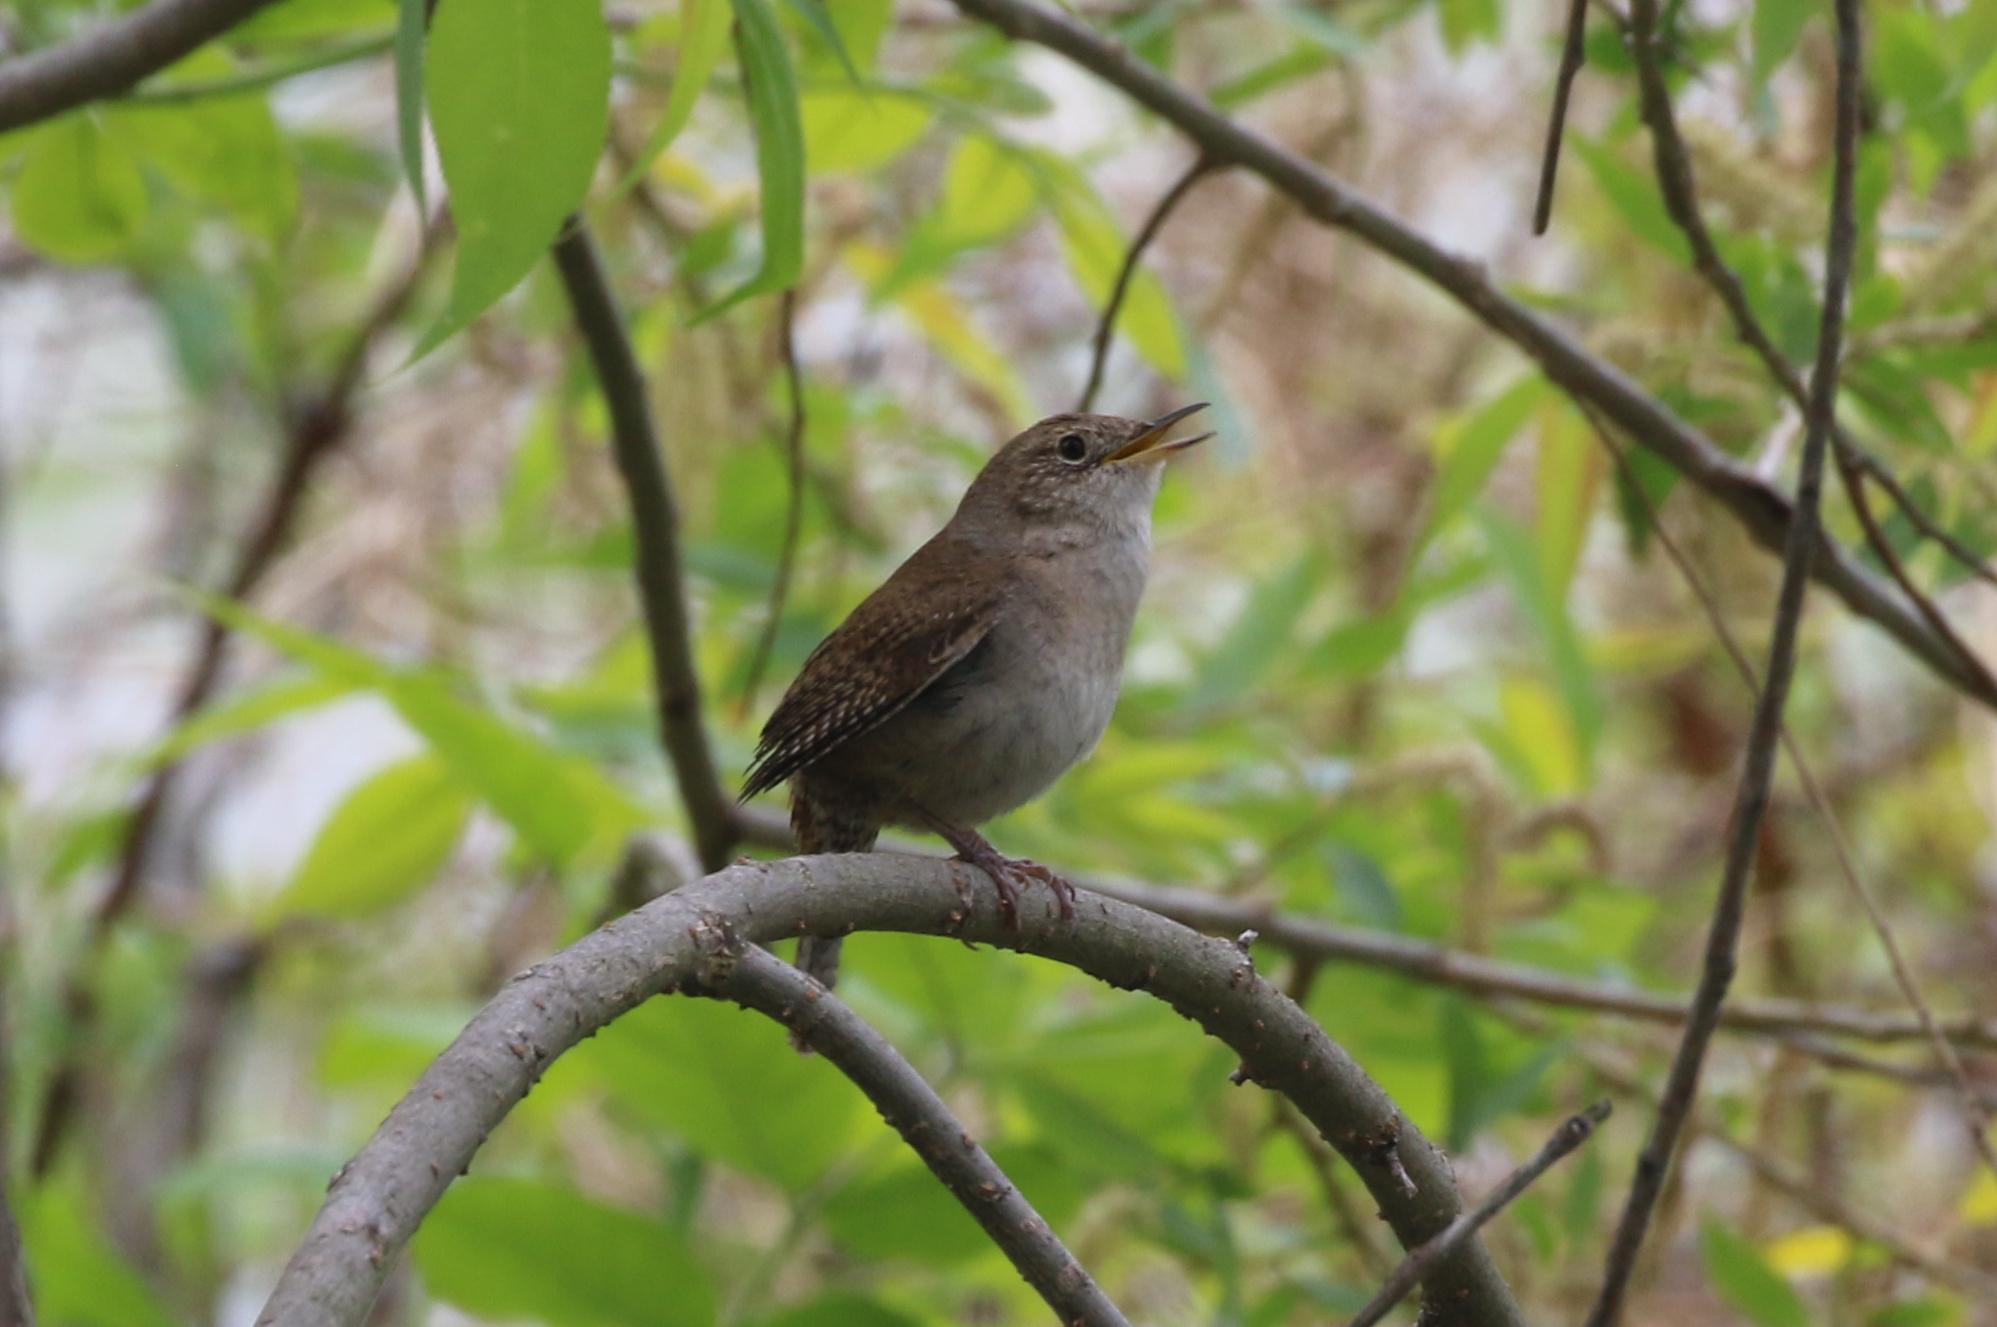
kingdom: Animalia
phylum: Chordata
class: Aves
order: Passeriformes
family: Troglodytidae
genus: Troglodytes
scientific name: Troglodytes aedon
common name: House wren
